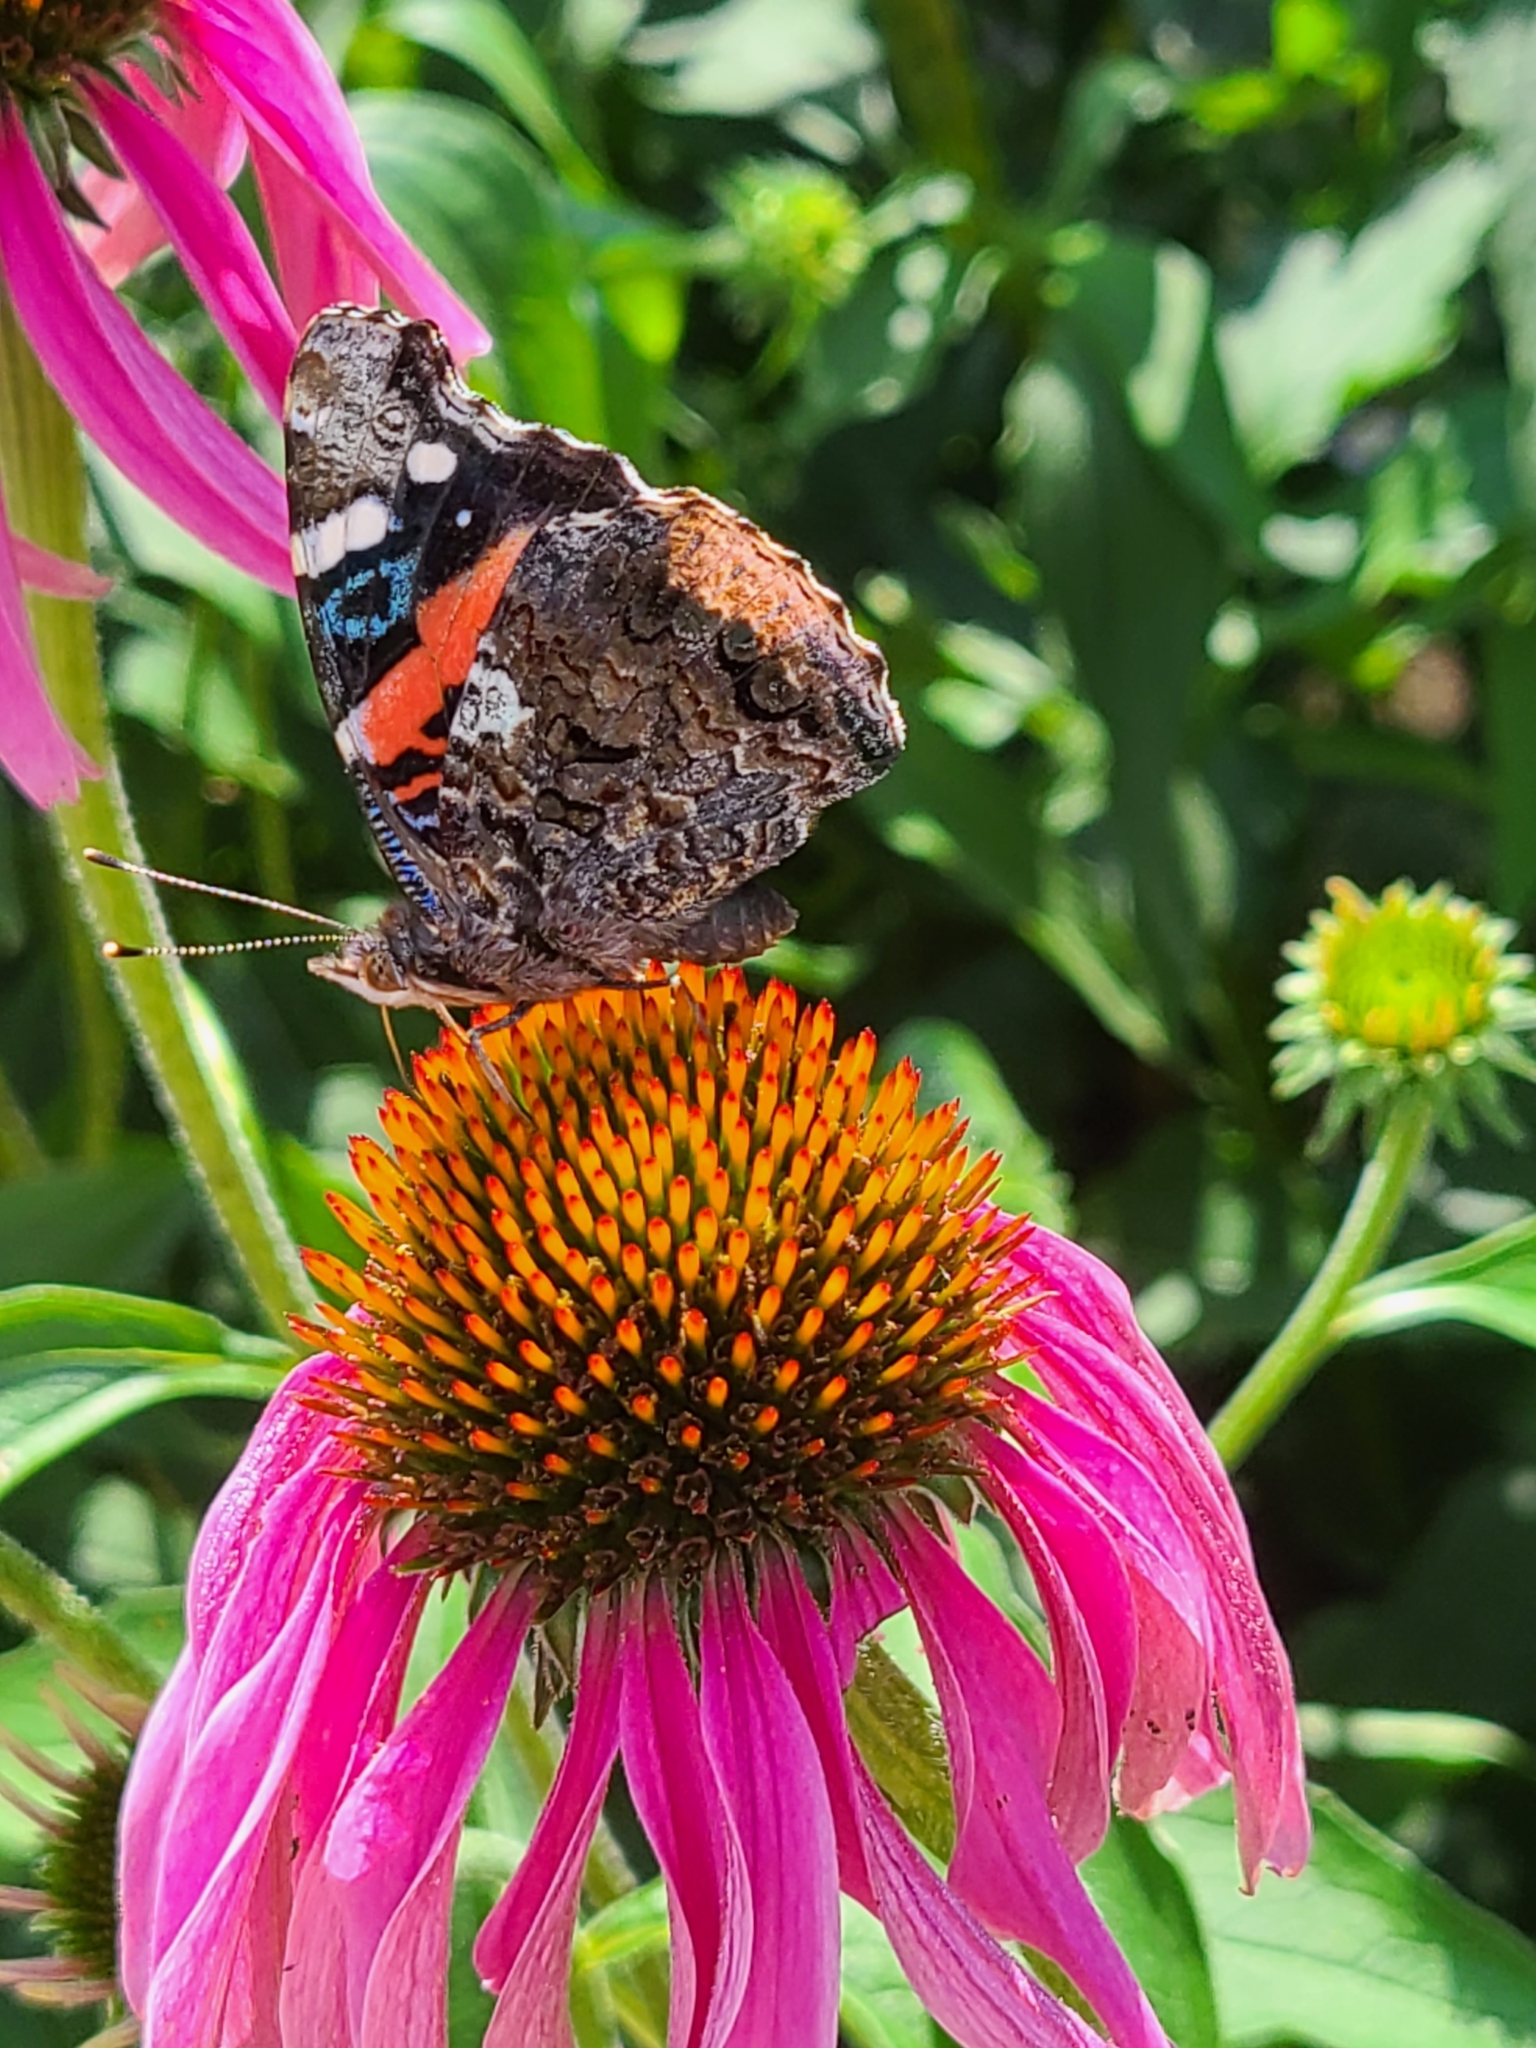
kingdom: Animalia
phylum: Arthropoda
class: Insecta
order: Lepidoptera
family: Nymphalidae
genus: Vanessa
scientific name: Vanessa atalanta
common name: Red admiral
